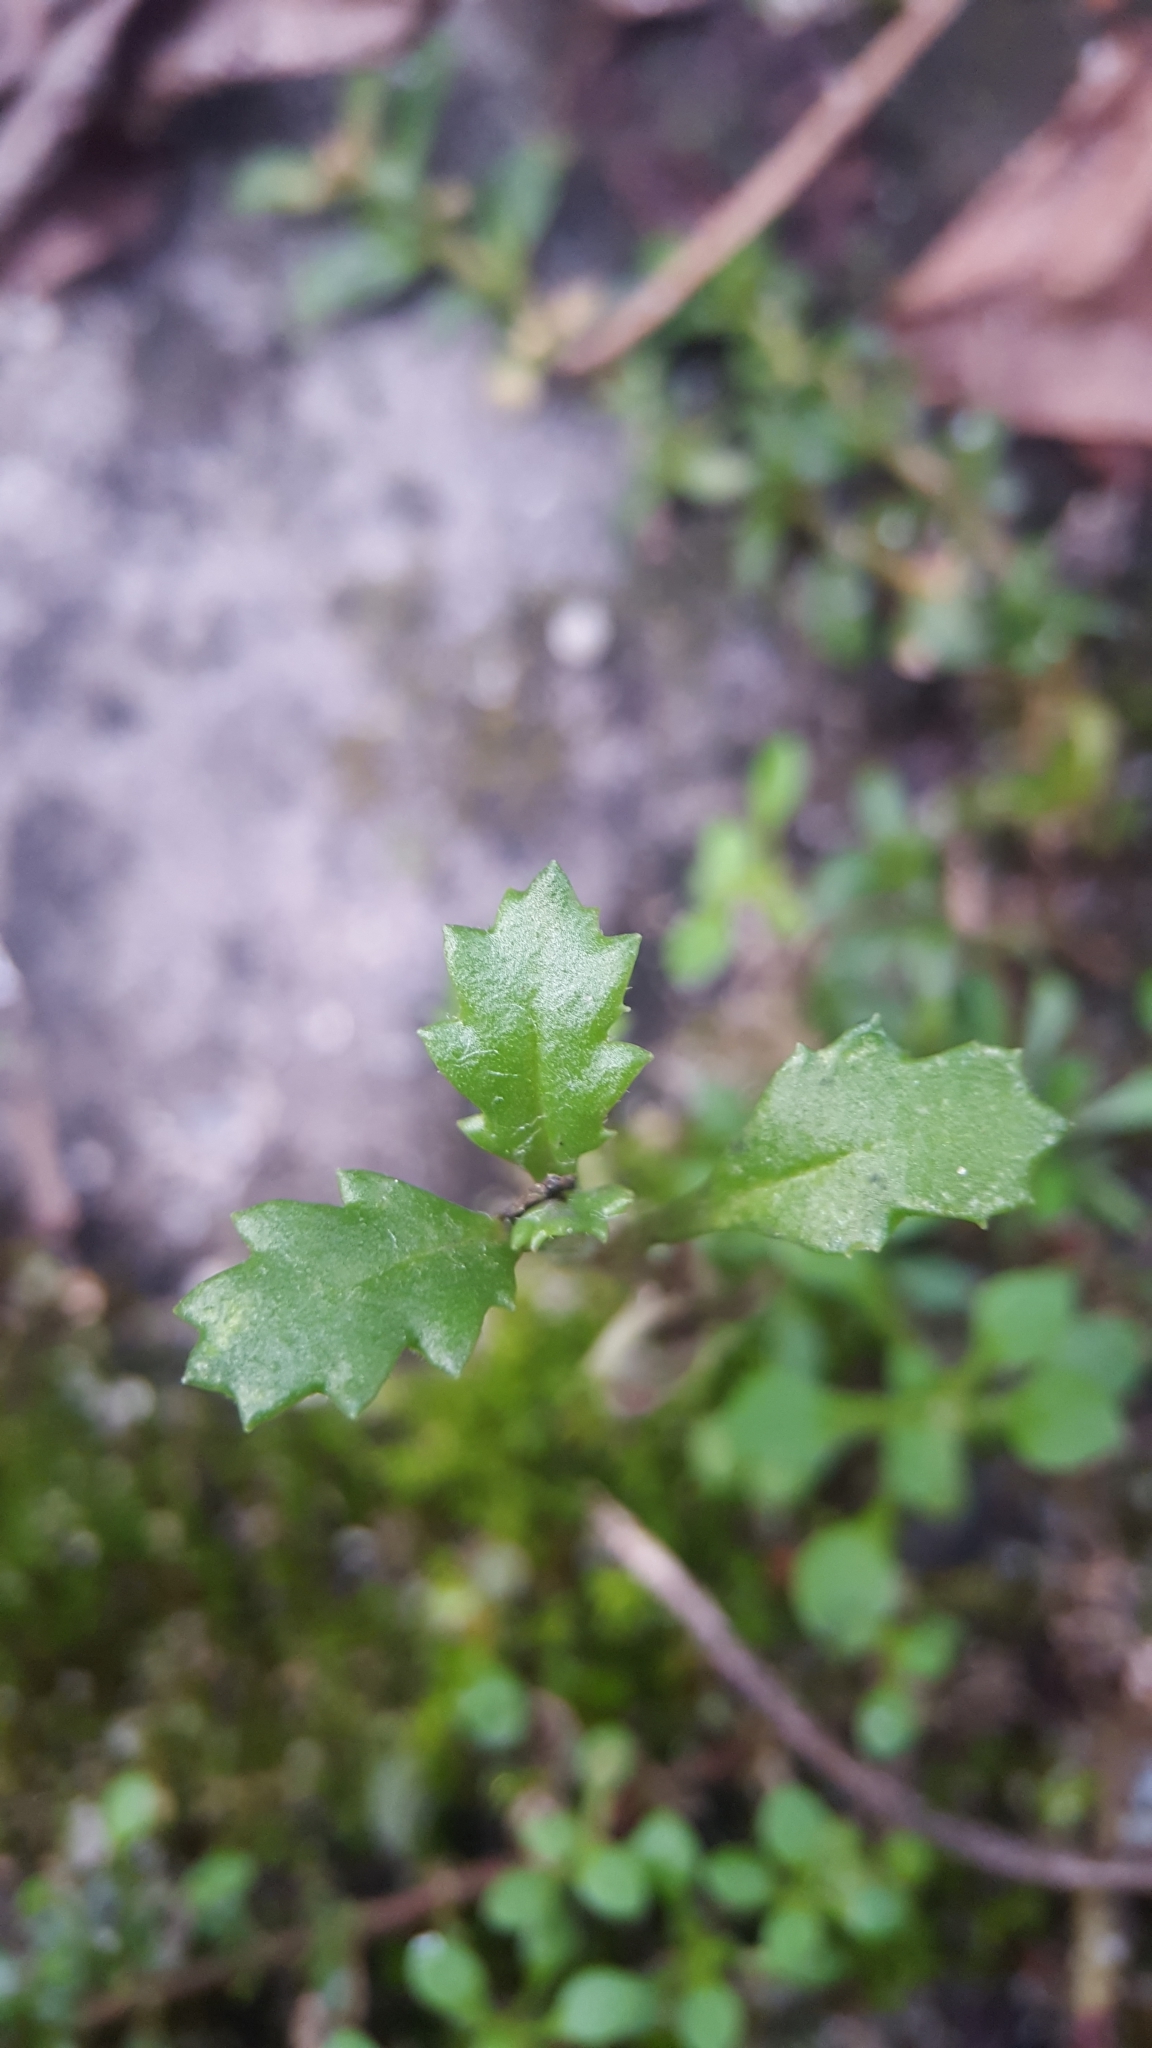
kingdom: Plantae
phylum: Tracheophyta
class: Magnoliopsida
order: Asterales
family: Asteraceae
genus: Senecio
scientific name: Senecio vulgaris
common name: Old-man-in-the-spring
